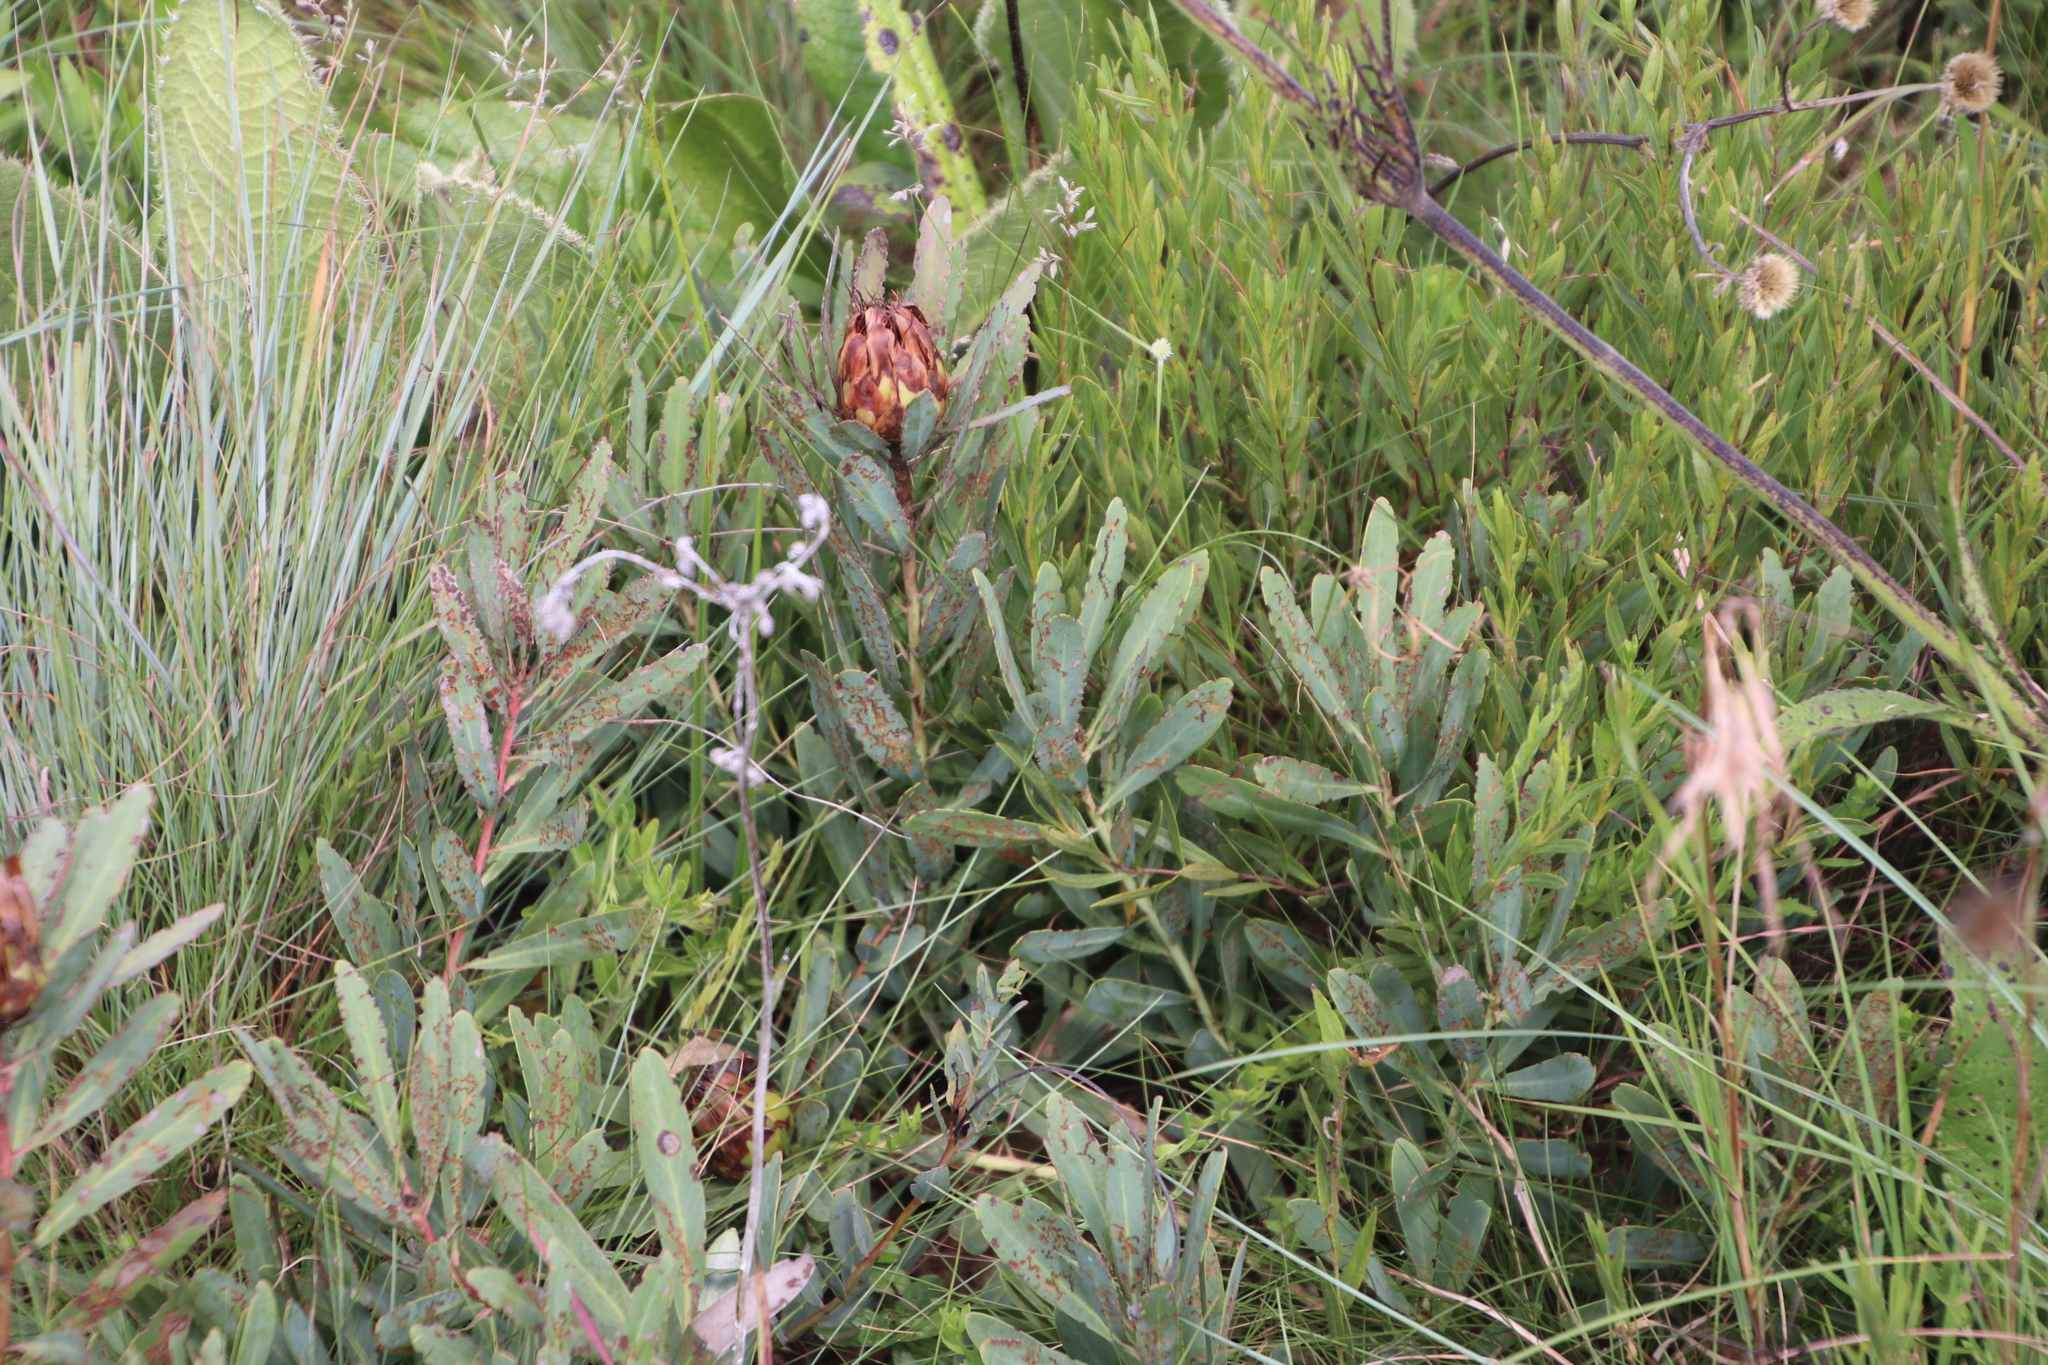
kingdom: Plantae
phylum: Tracheophyta
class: Magnoliopsida
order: Proteales
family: Proteaceae
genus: Protea
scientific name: Protea simplex
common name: Dwarf grassveld sugarbush
